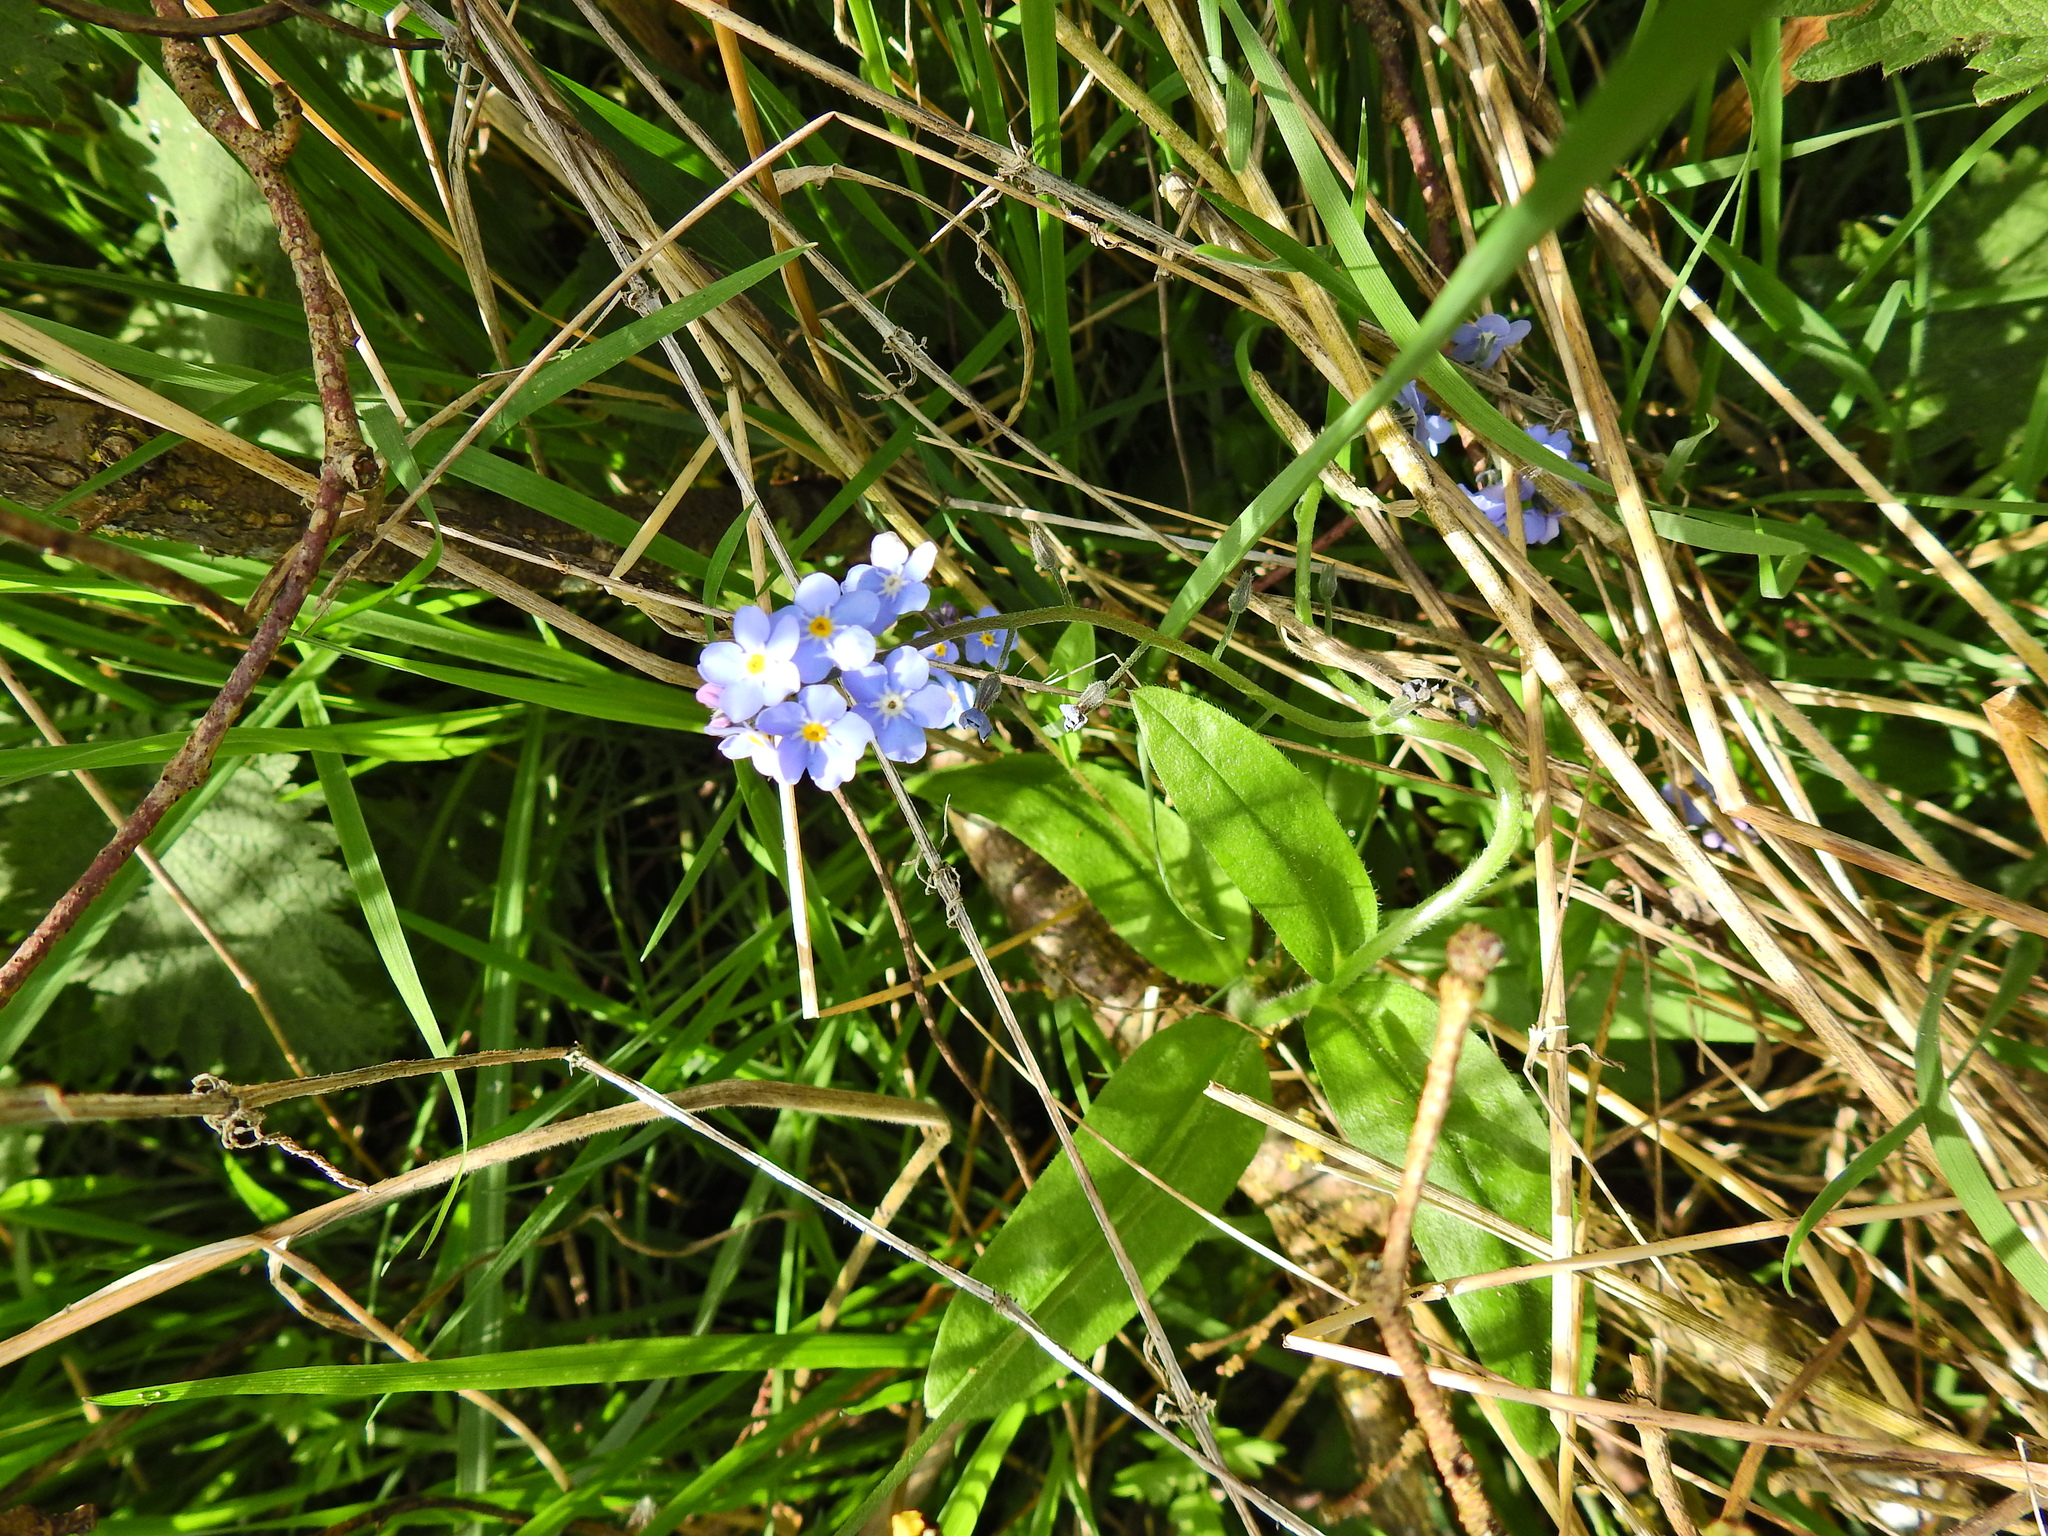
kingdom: Plantae
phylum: Tracheophyta
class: Magnoliopsida
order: Boraginales
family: Boraginaceae
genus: Myosotis
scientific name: Myosotis sylvatica
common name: Wood forget-me-not
